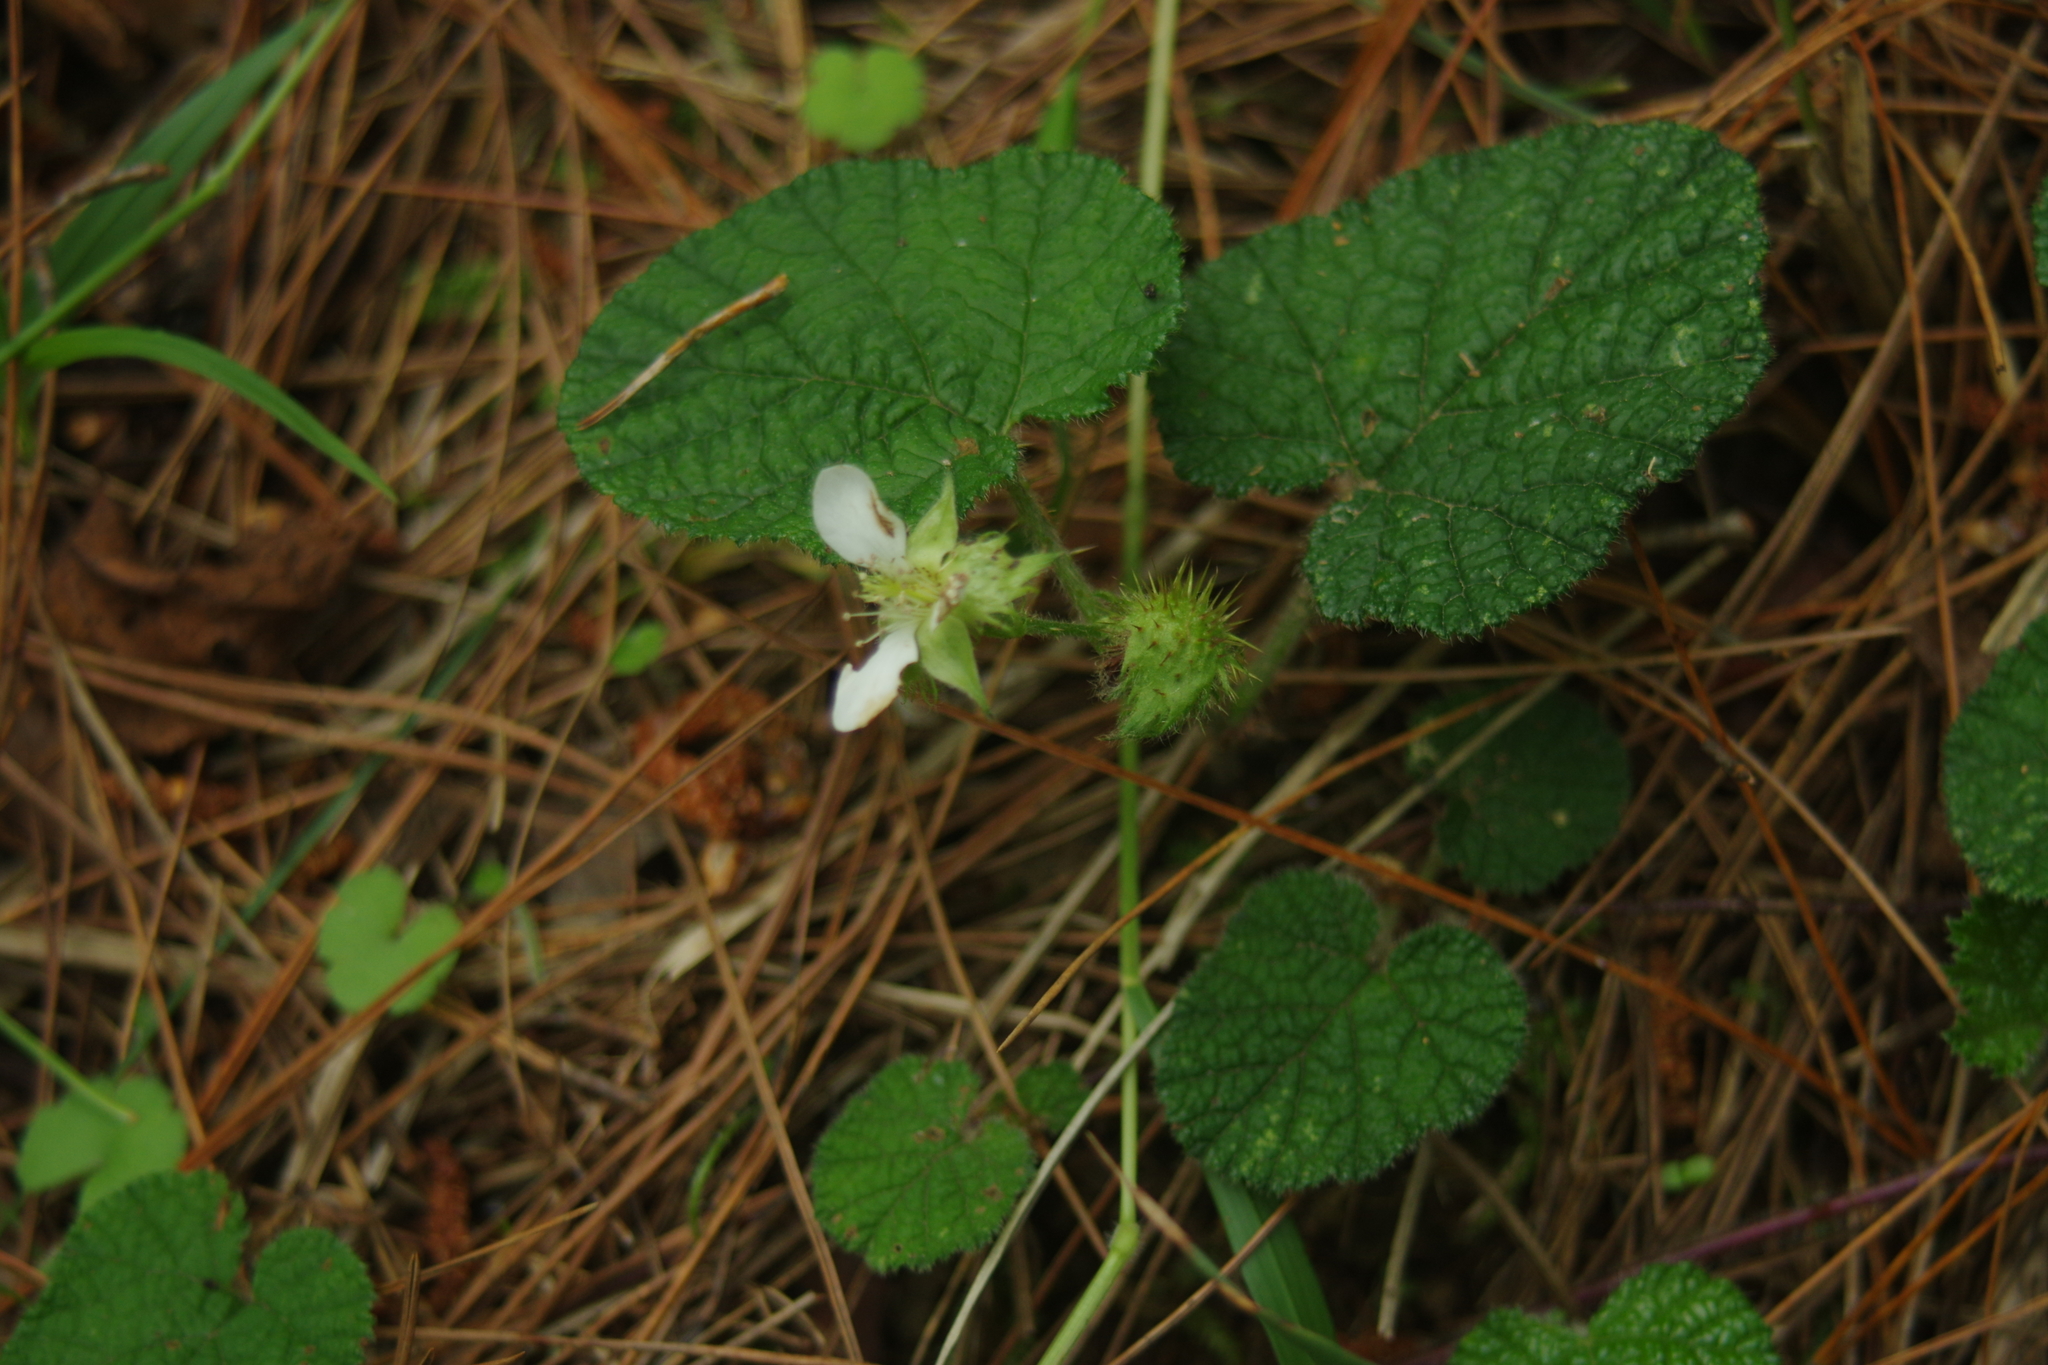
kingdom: Plantae
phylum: Tracheophyta
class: Magnoliopsida
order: Rosales
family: Rosaceae
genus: Rubus
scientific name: Rubus pectinellus
